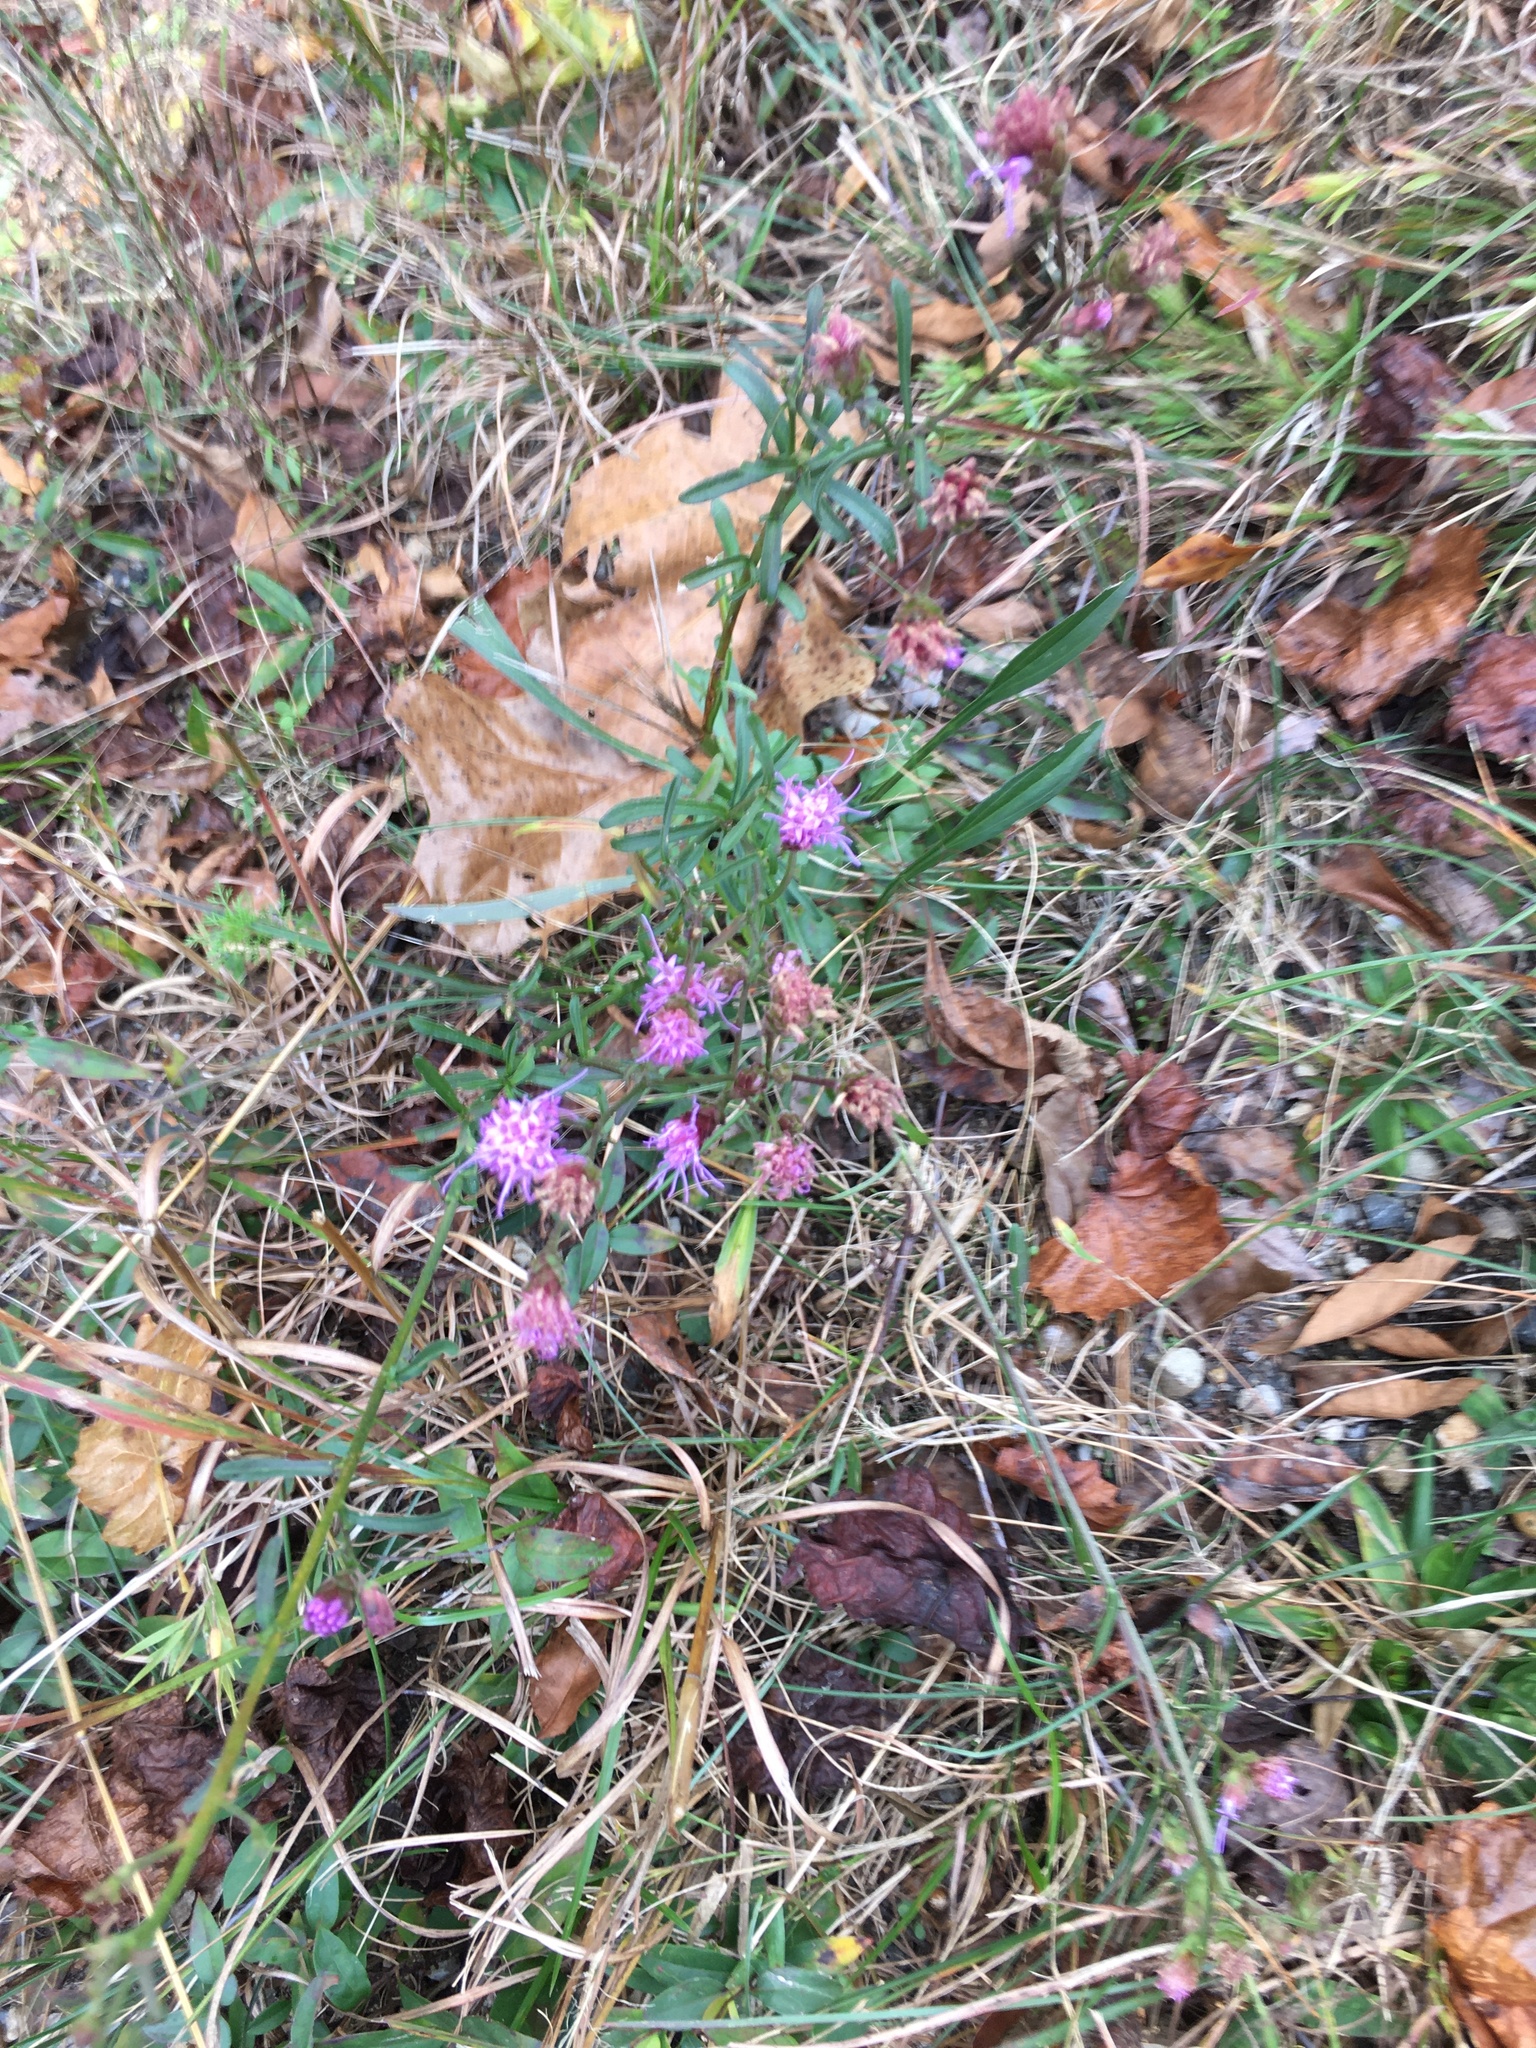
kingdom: Plantae
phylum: Tracheophyta
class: Magnoliopsida
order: Asterales
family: Asteraceae
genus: Carphephorus
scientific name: Carphephorus bellidifolius
